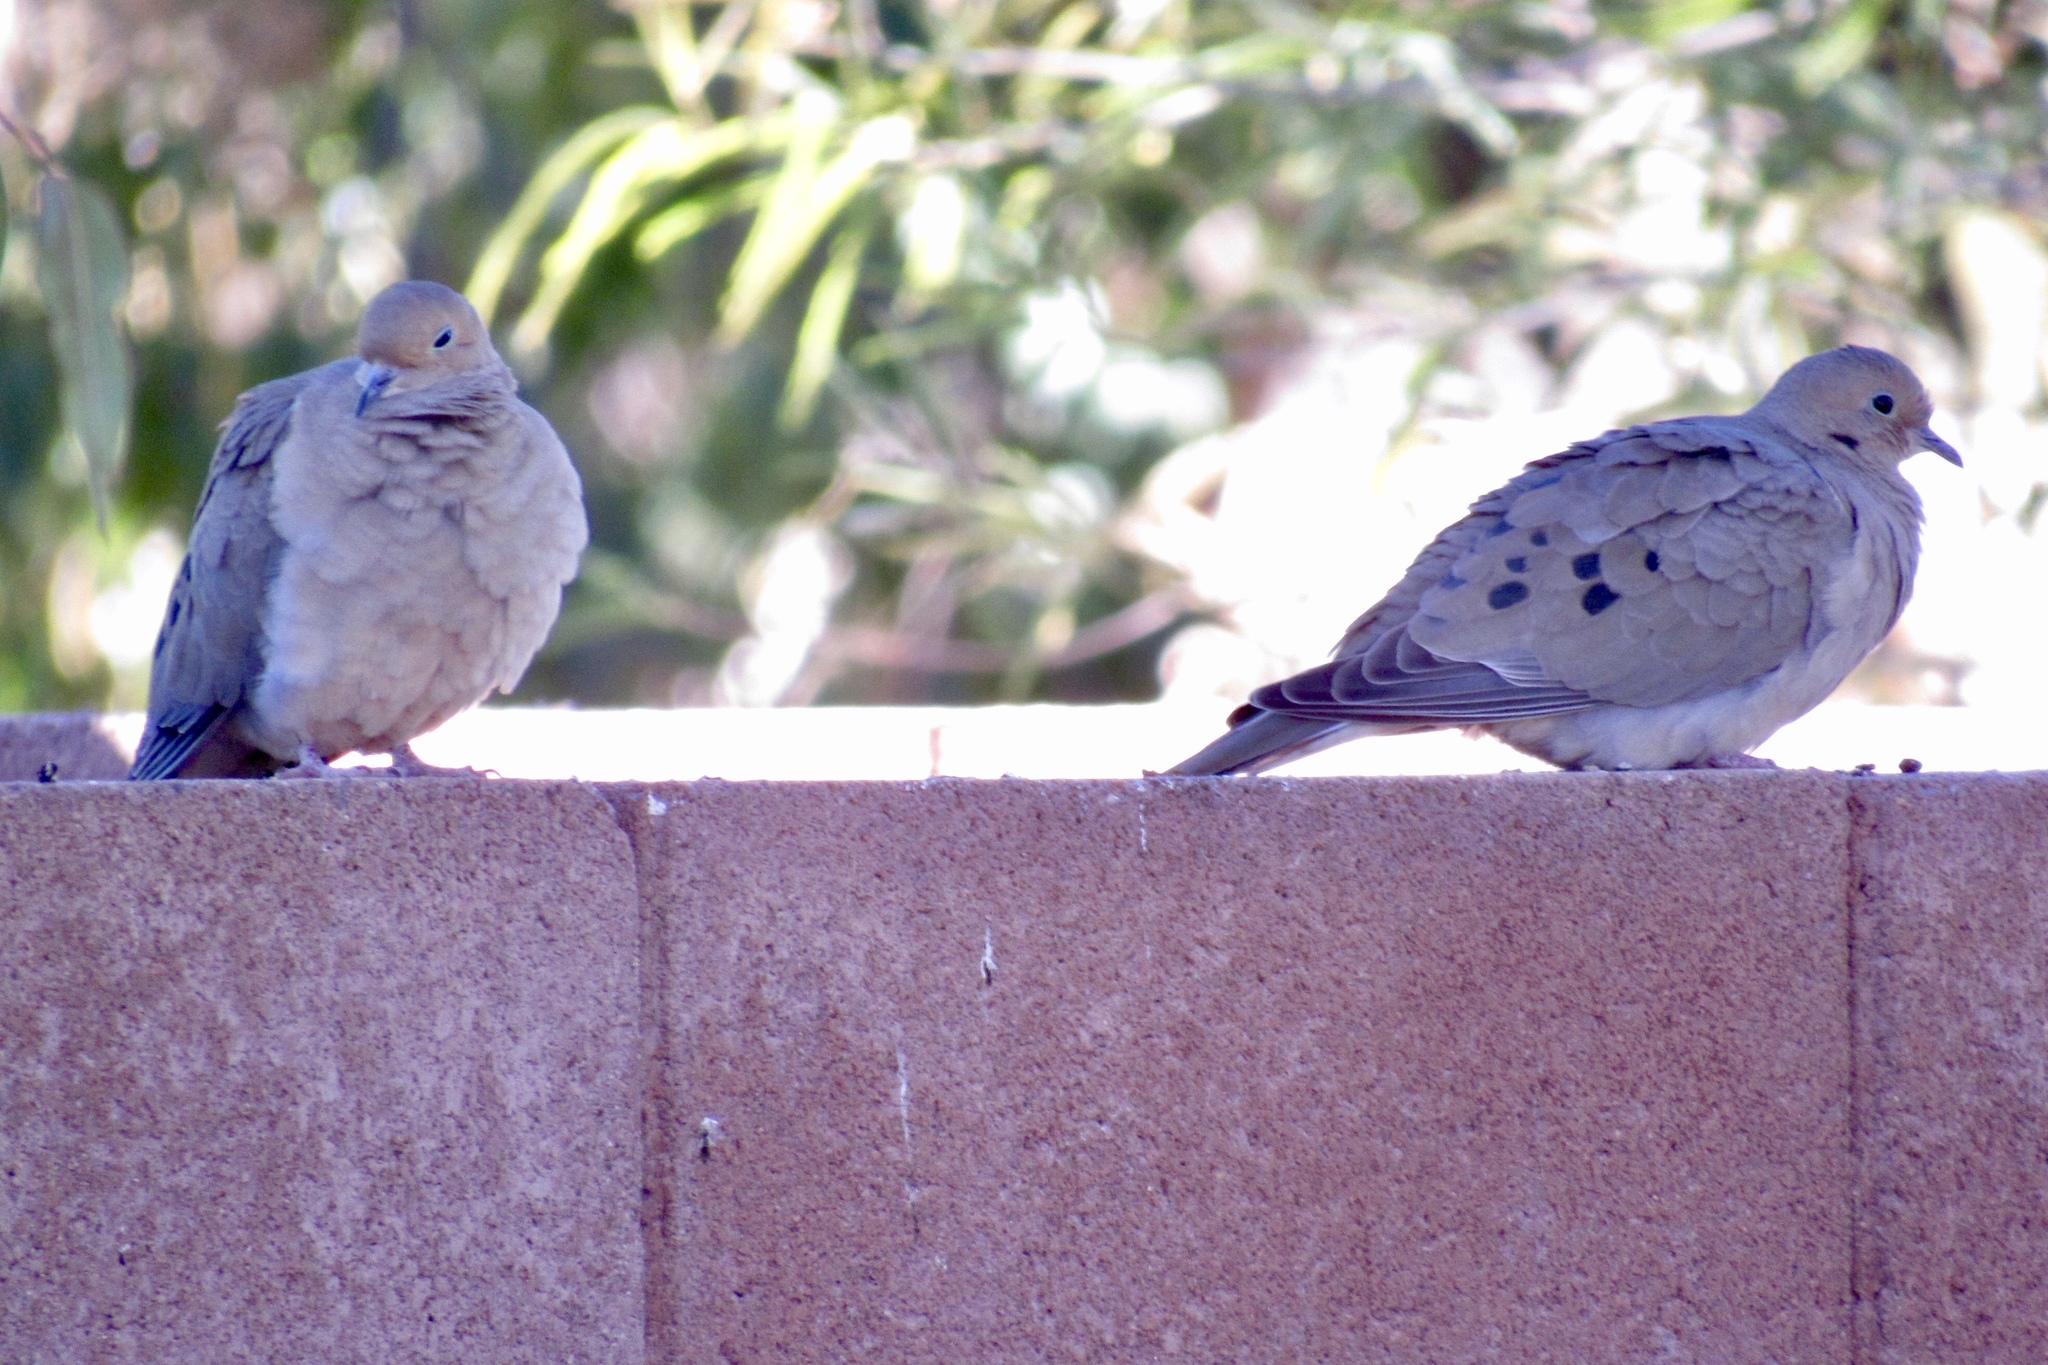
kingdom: Animalia
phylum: Chordata
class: Aves
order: Columbiformes
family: Columbidae
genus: Zenaida
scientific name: Zenaida macroura
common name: Mourning dove
